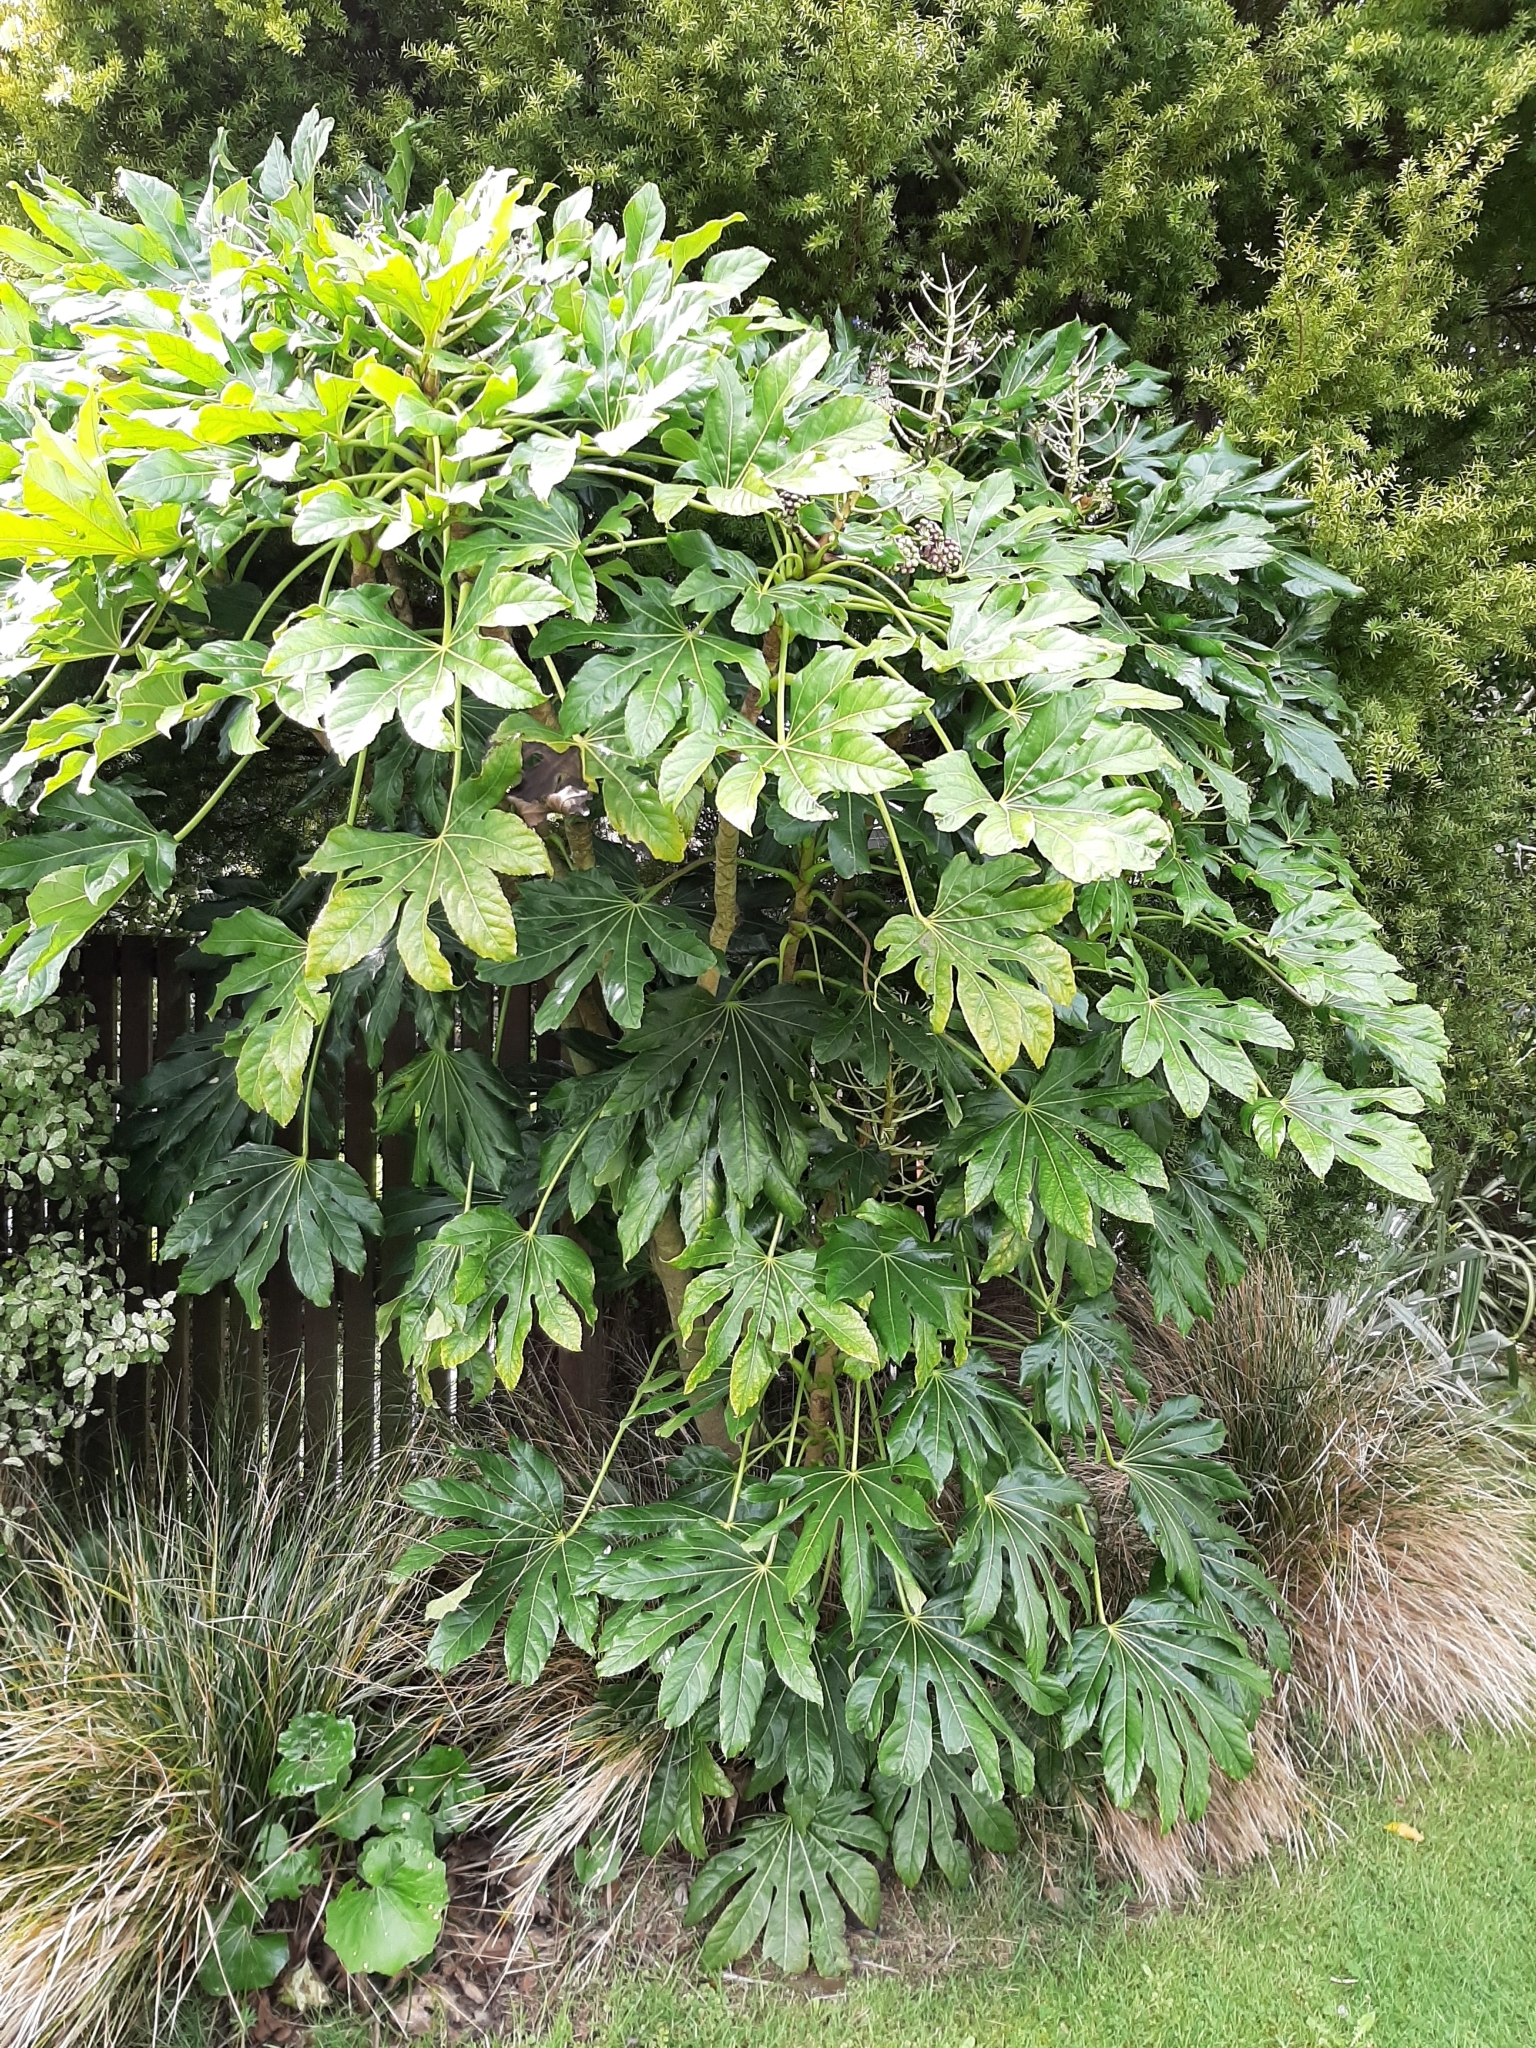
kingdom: Plantae
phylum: Tracheophyta
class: Magnoliopsida
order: Apiales
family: Araliaceae
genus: Fatsia
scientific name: Fatsia japonica
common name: Fatsia
